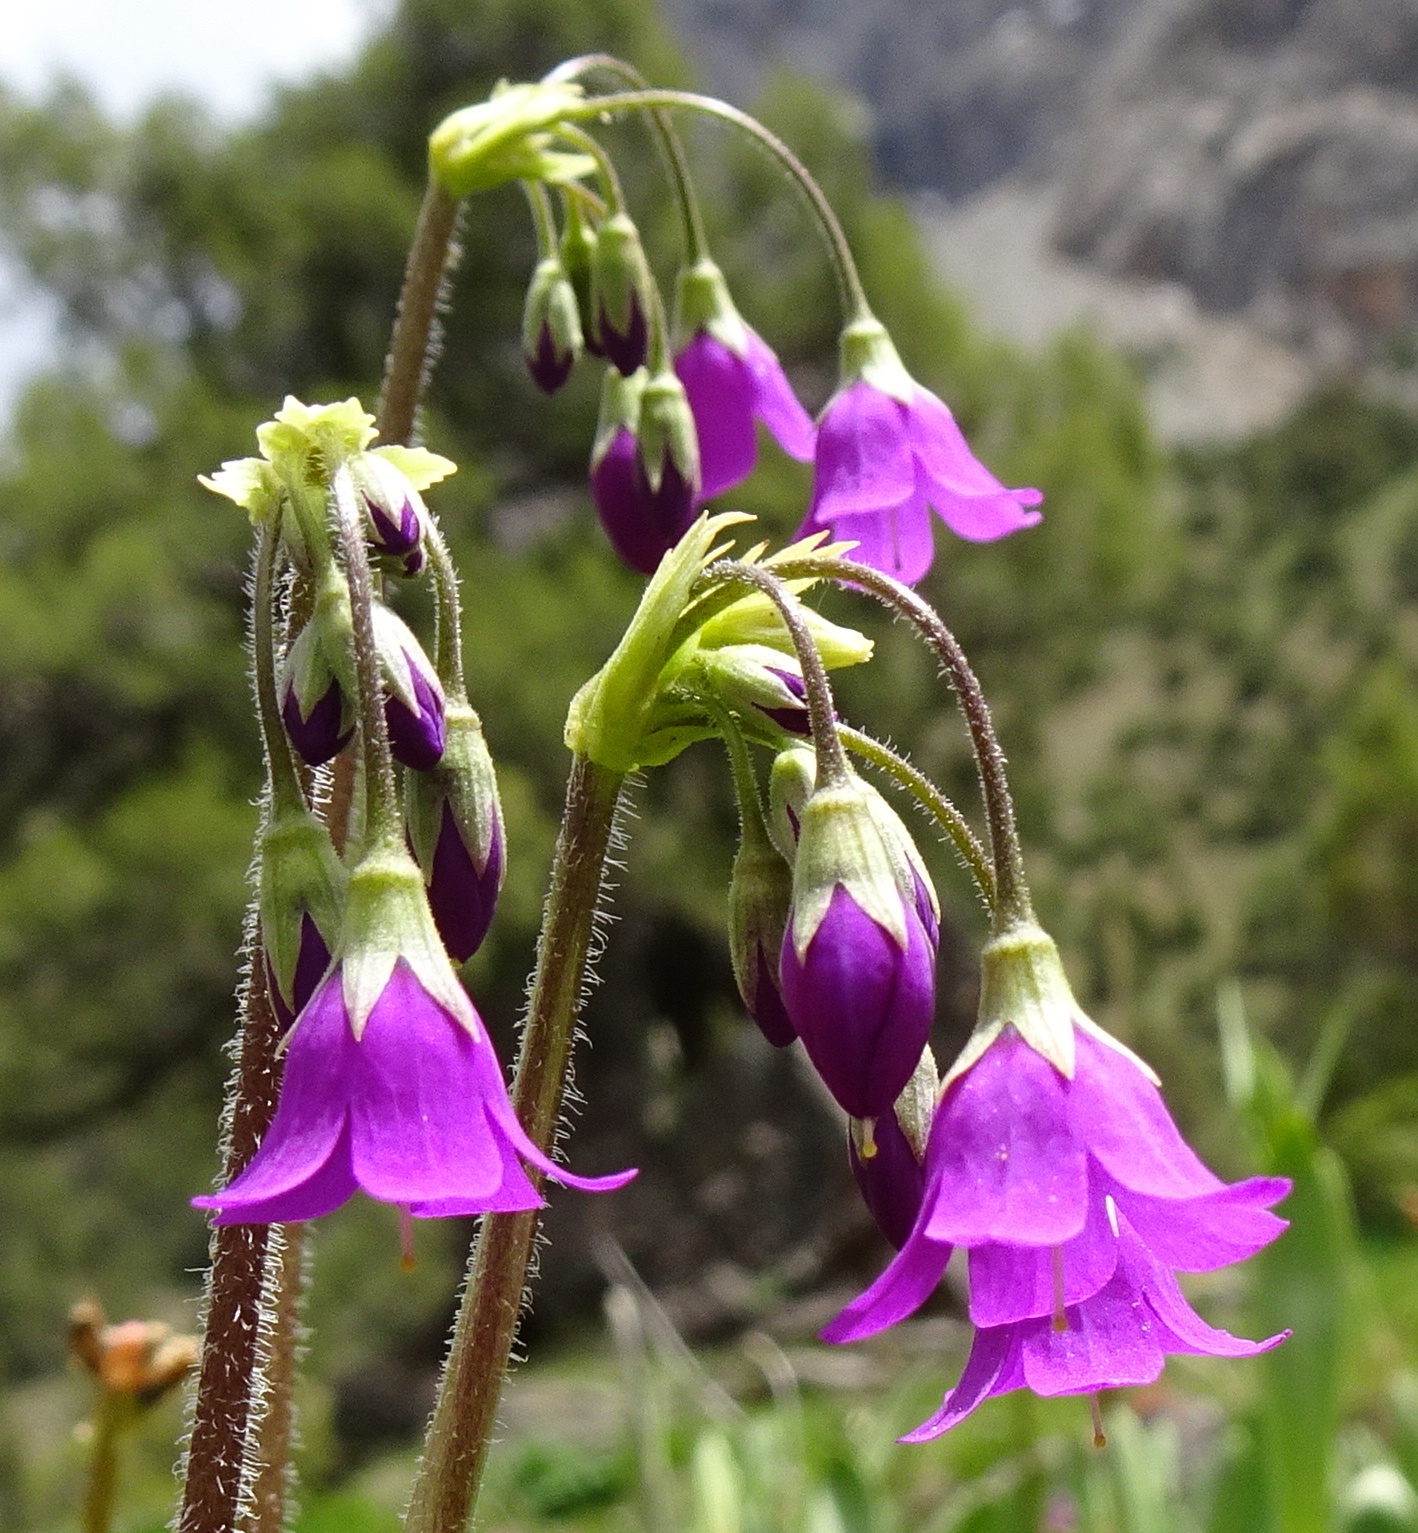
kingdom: Plantae
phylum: Tracheophyta
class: Magnoliopsida
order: Ericales
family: Primulaceae
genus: Primula
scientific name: Primula matthioli
